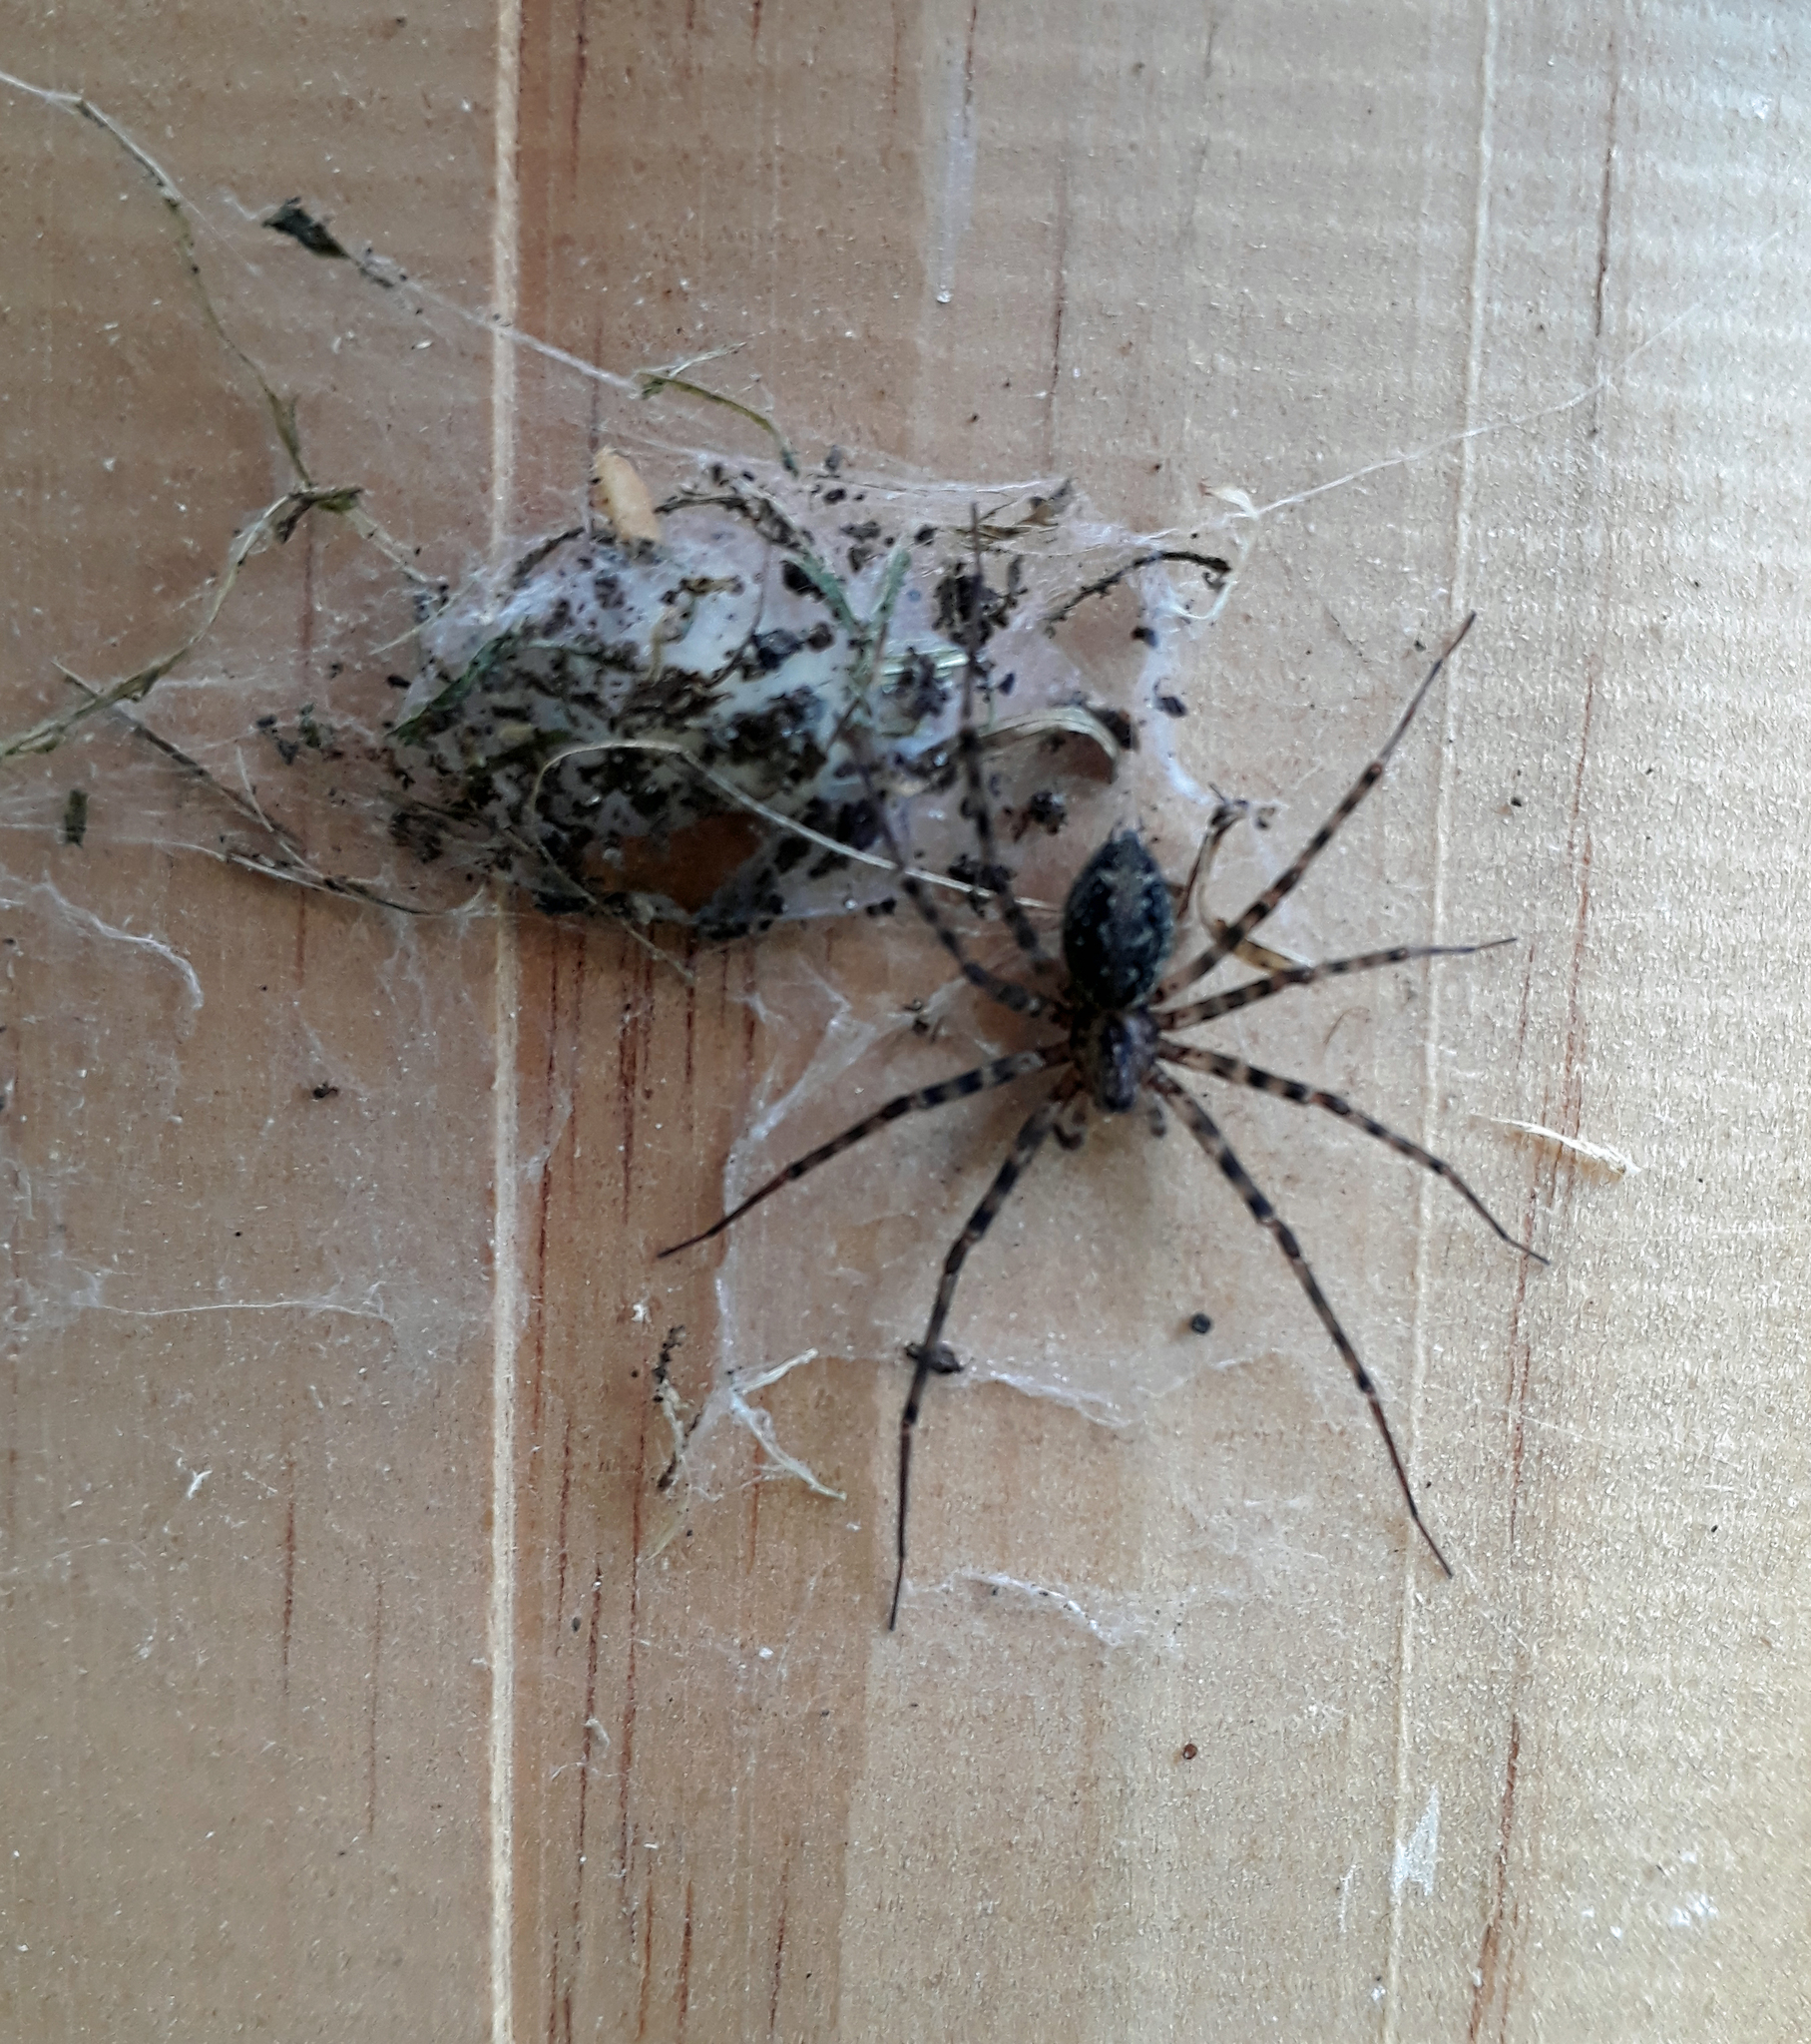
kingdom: Animalia
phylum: Arthropoda
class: Arachnida
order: Araneae
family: Stiphidiidae
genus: Stiphidion
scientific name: Stiphidion facetum
